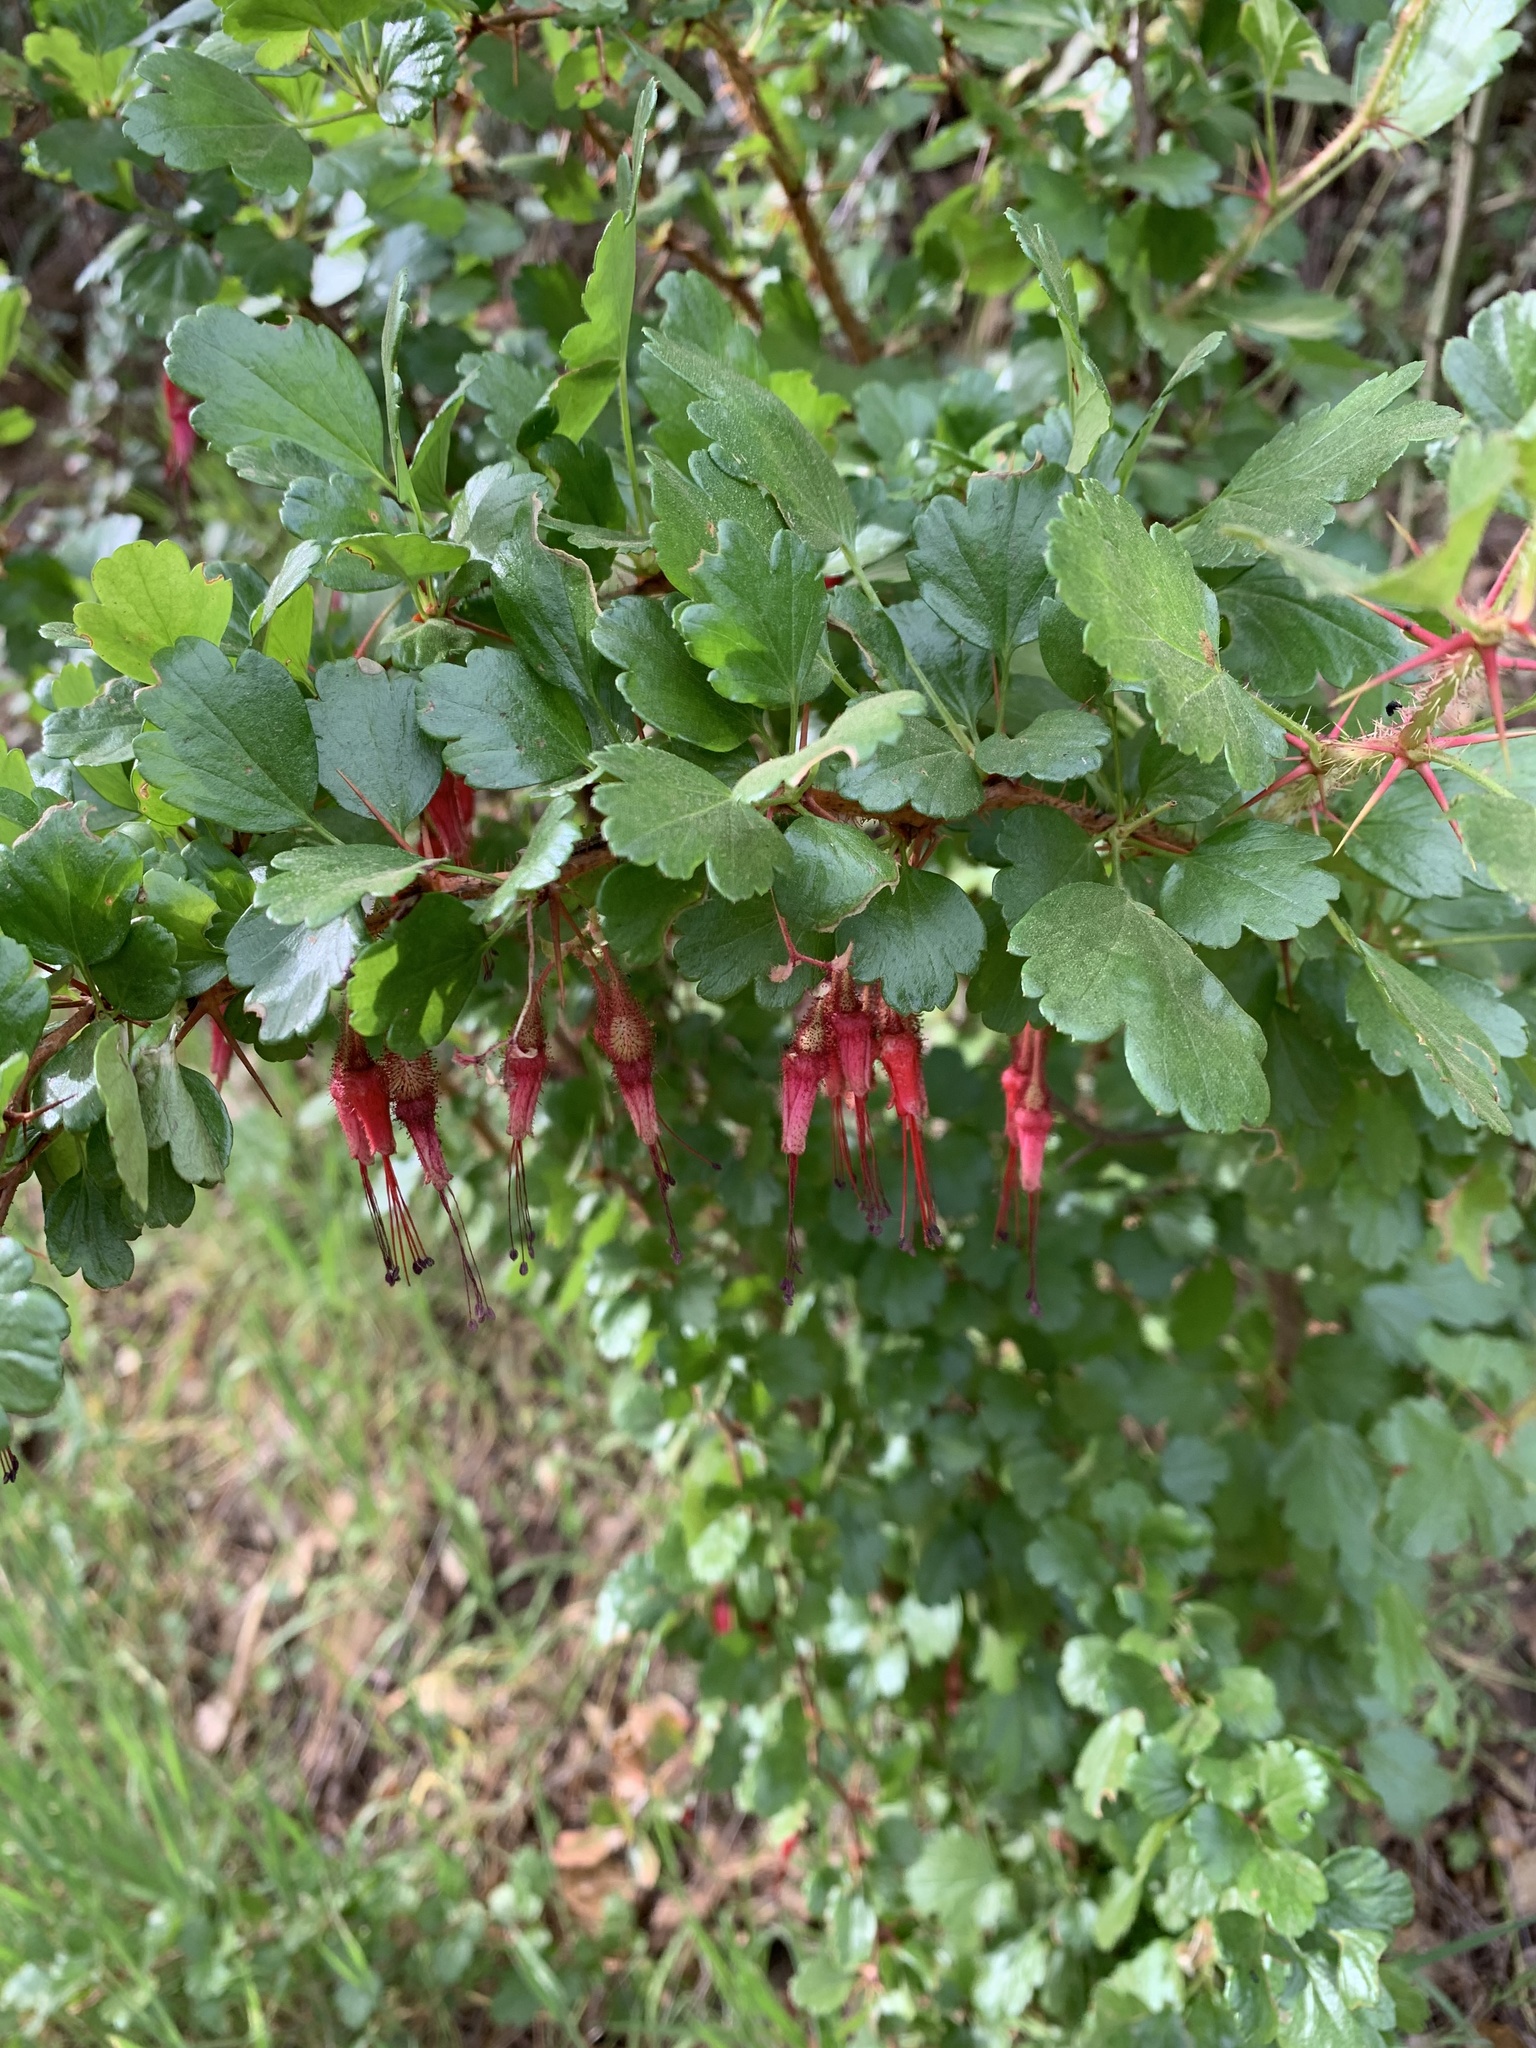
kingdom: Plantae
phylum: Tracheophyta
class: Magnoliopsida
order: Saxifragales
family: Grossulariaceae
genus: Ribes
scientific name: Ribes speciosum
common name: Fuchsia-flower gooseberry
